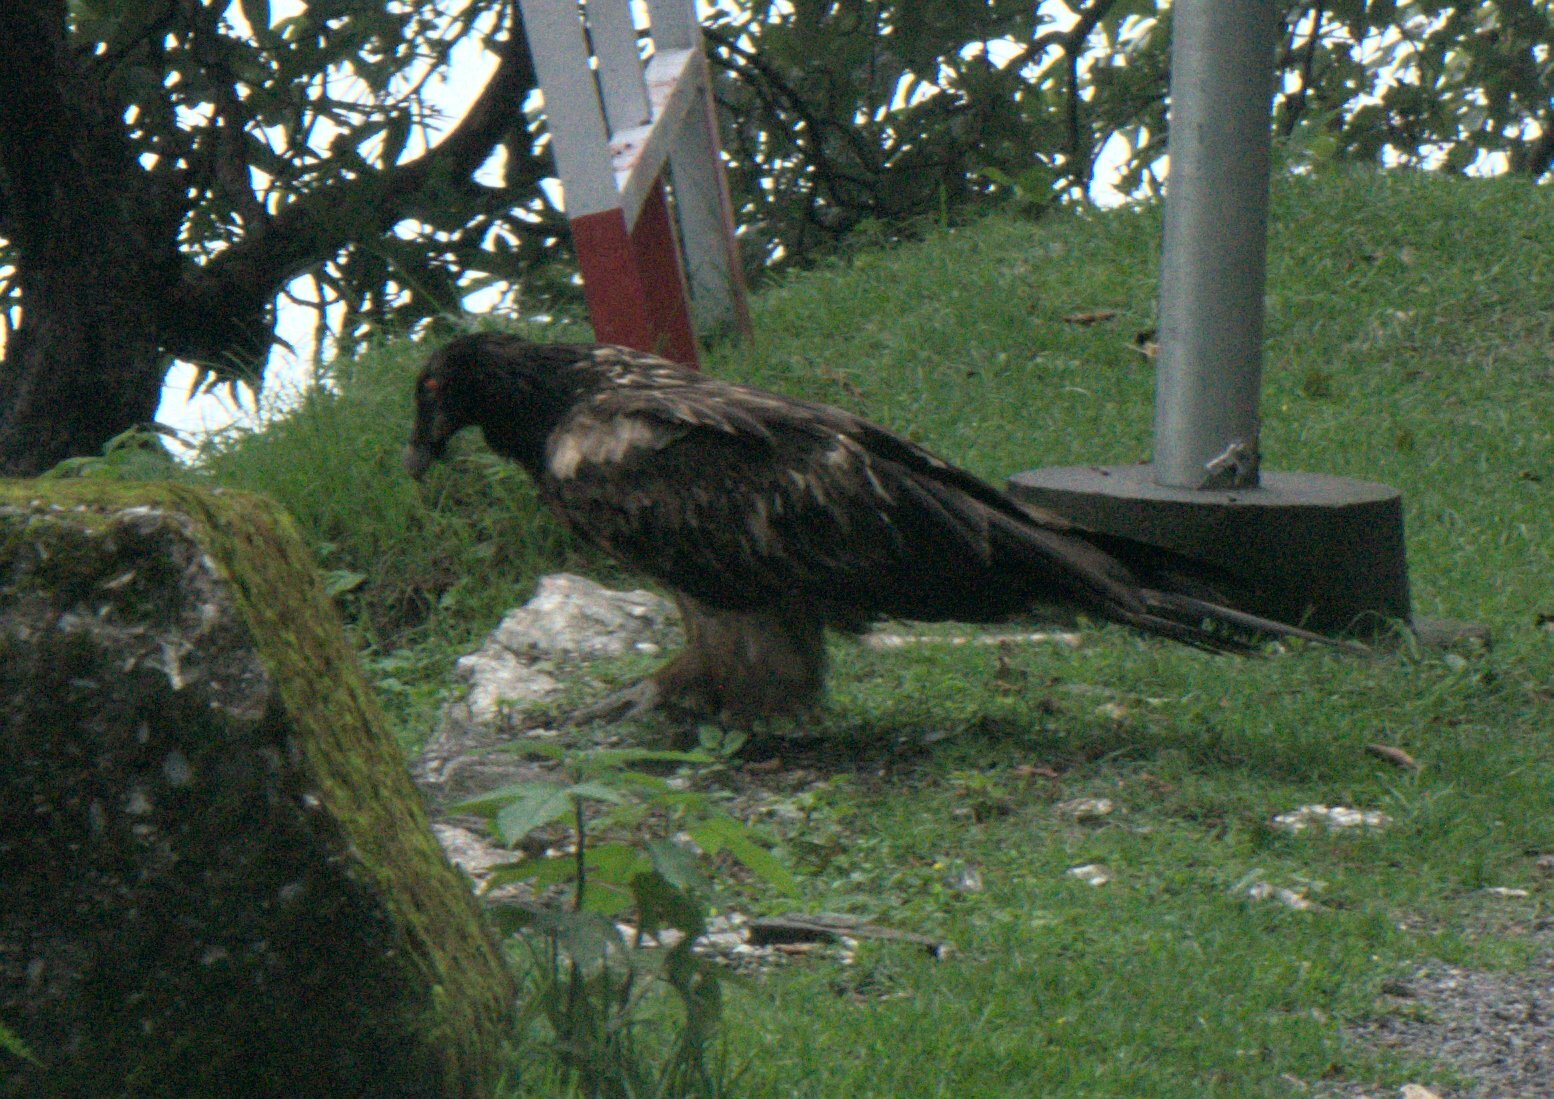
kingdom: Animalia
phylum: Chordata
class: Aves
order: Accipitriformes
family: Accipitridae
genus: Gypaetus
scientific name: Gypaetus barbatus
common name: Bearded vulture
